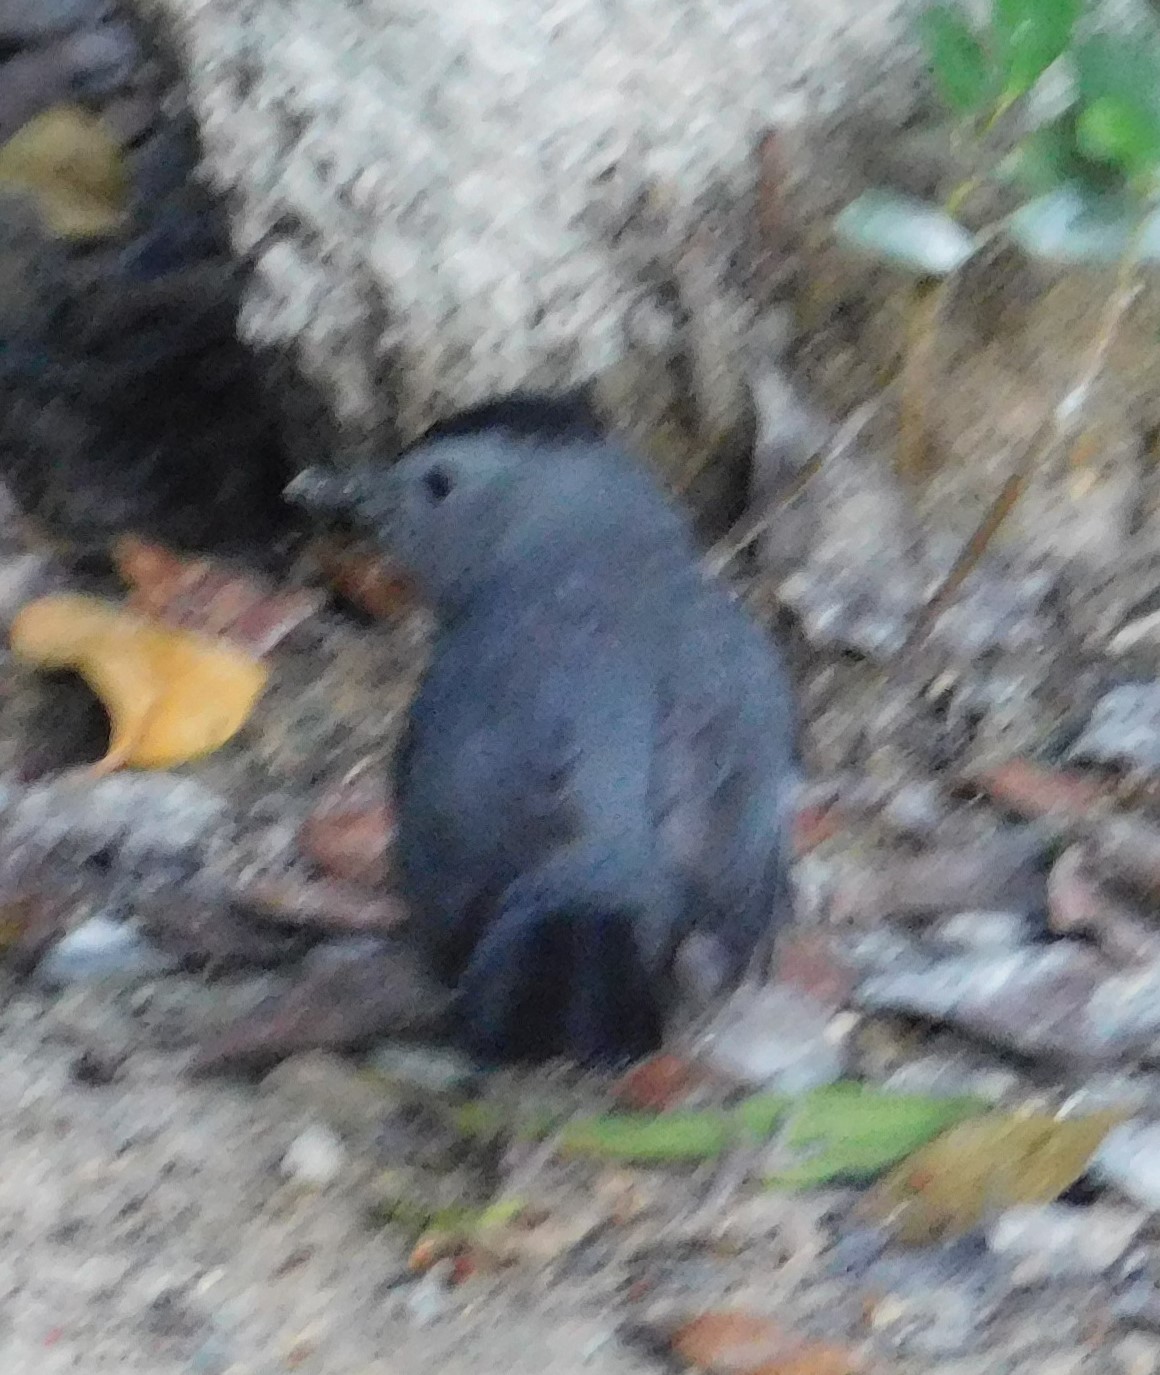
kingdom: Animalia
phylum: Chordata
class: Aves
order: Passeriformes
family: Mimidae
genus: Dumetella
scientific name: Dumetella carolinensis
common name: Gray catbird
